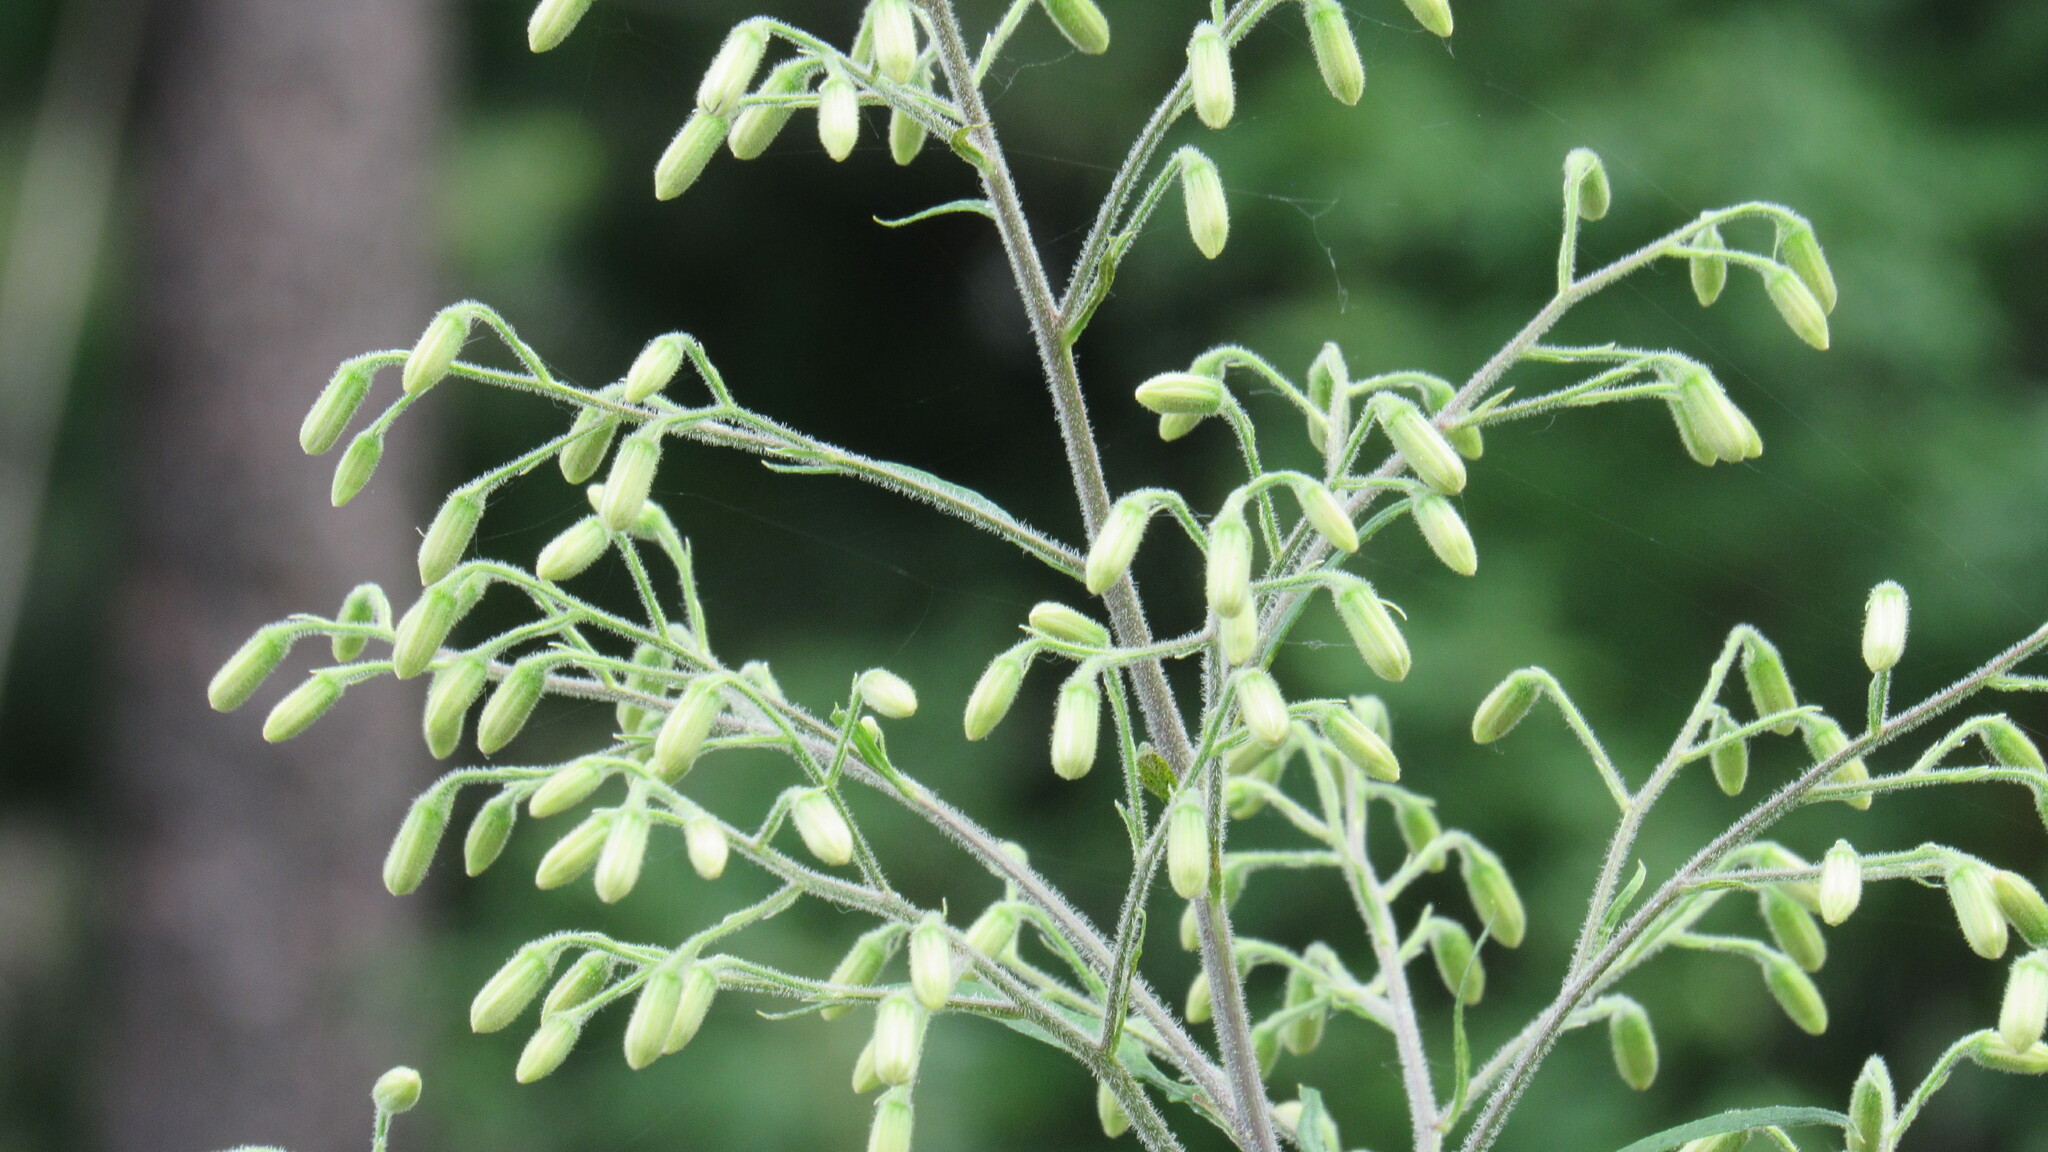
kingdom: Plantae
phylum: Tracheophyta
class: Magnoliopsida
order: Asterales
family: Asteraceae
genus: Parasenecio
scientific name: Parasenecio hastatus
